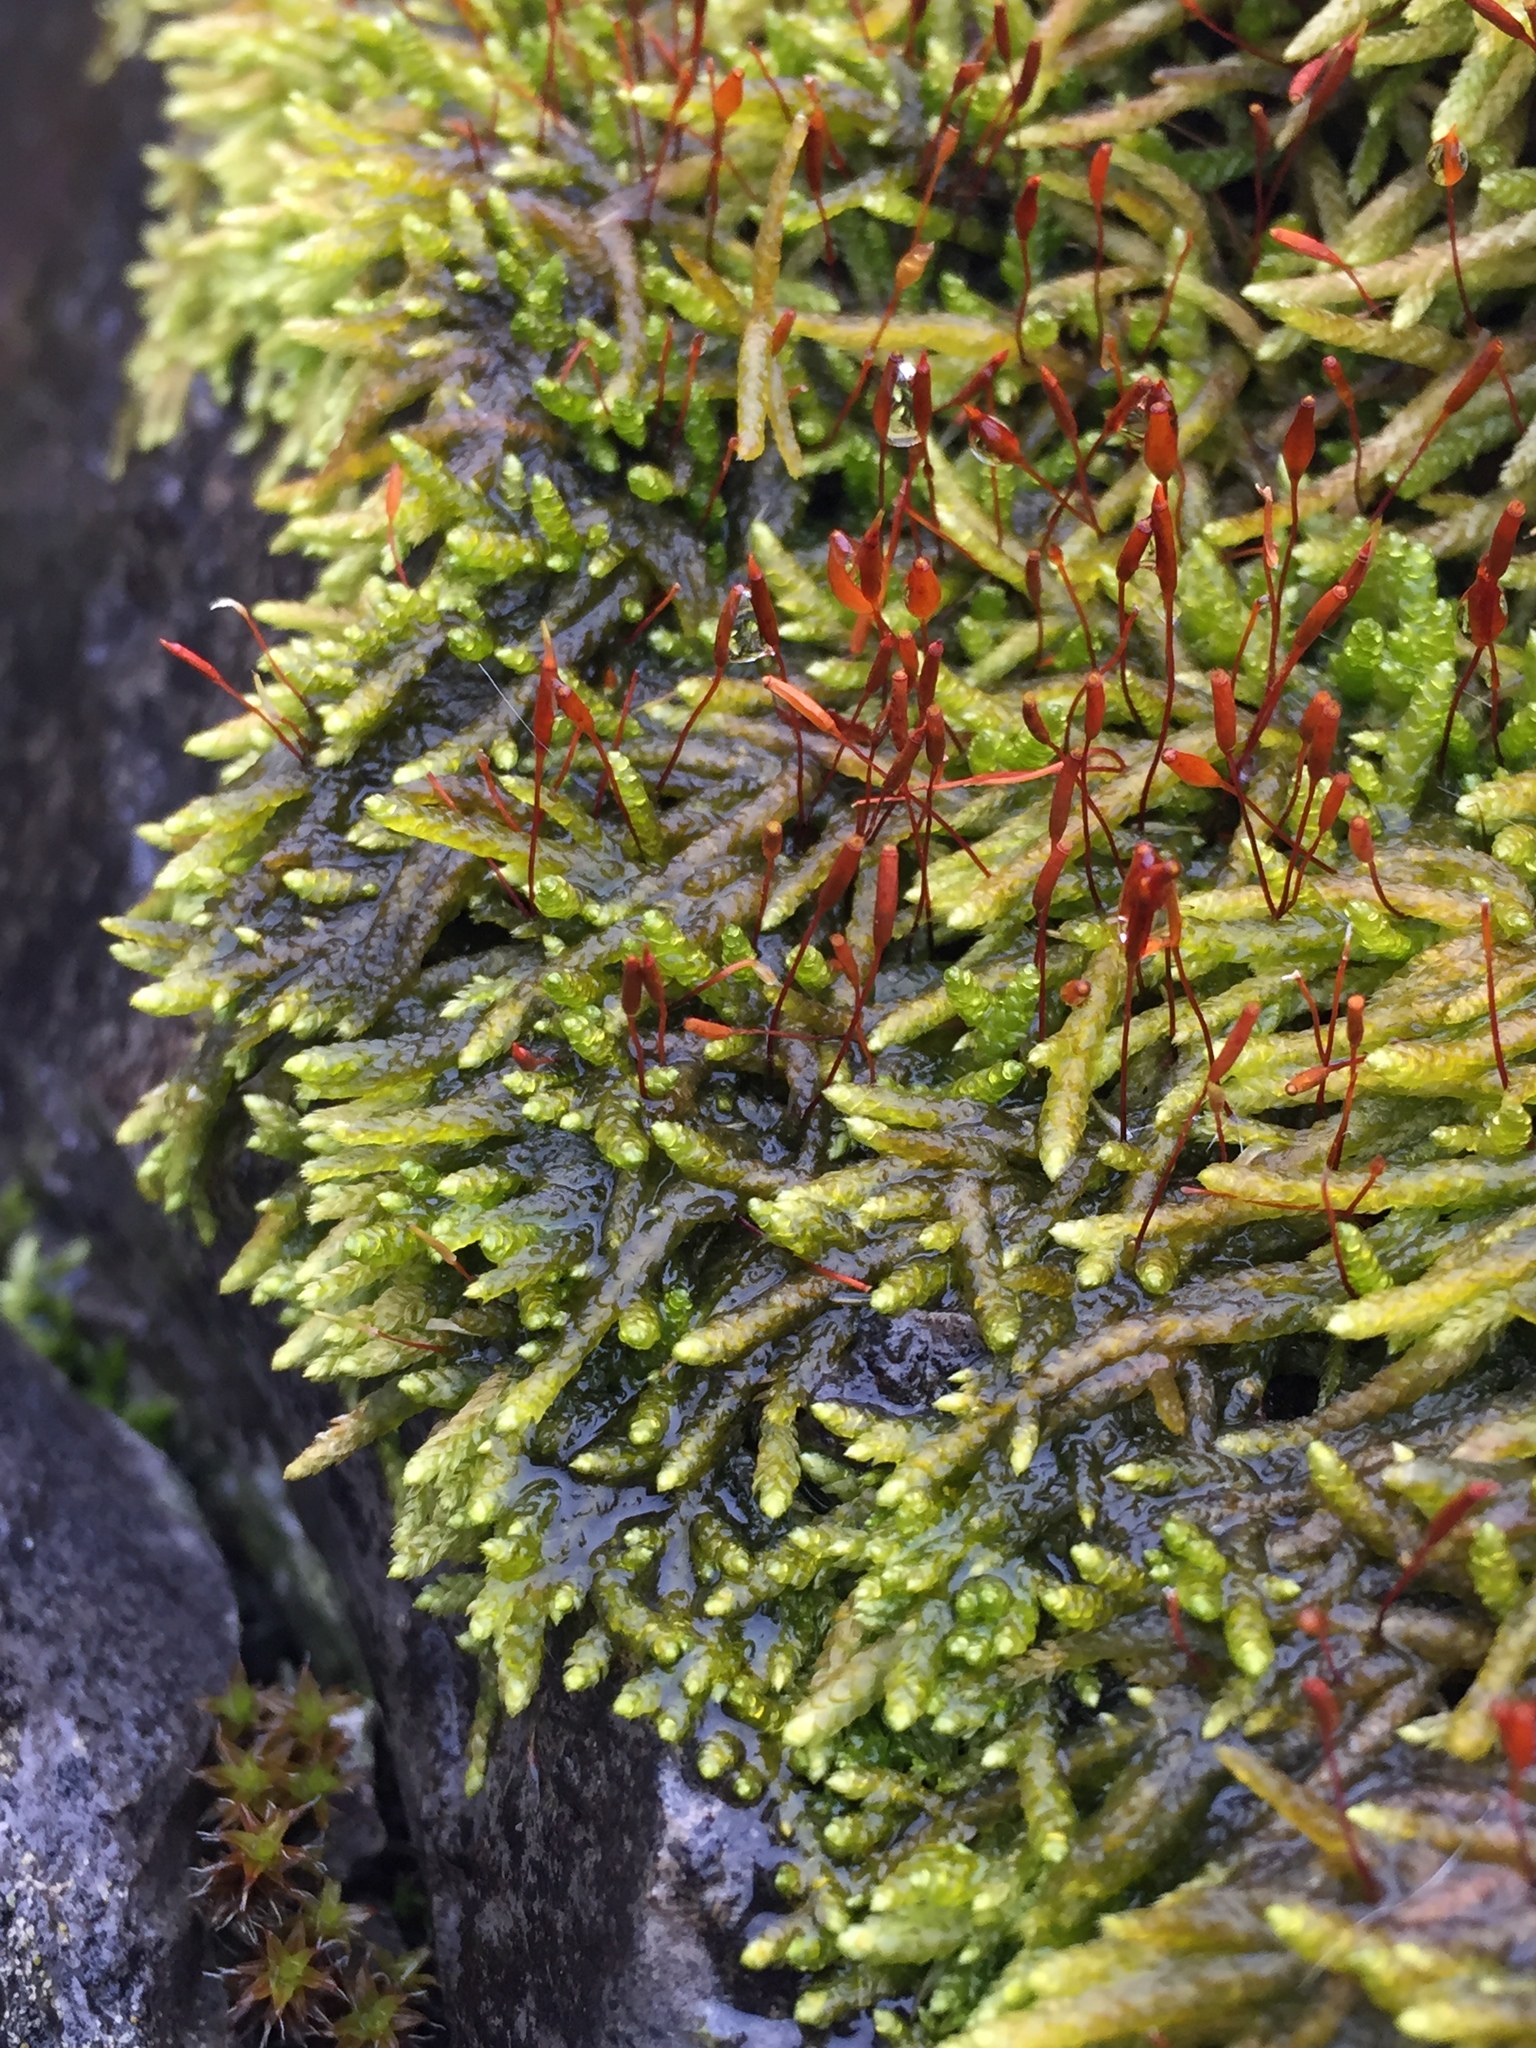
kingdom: Plantae
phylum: Bryophyta
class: Bryopsida
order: Hypnales
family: Entodontaceae
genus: Entodon
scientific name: Entodon seductrix
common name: Round-stemmed entodon moss
